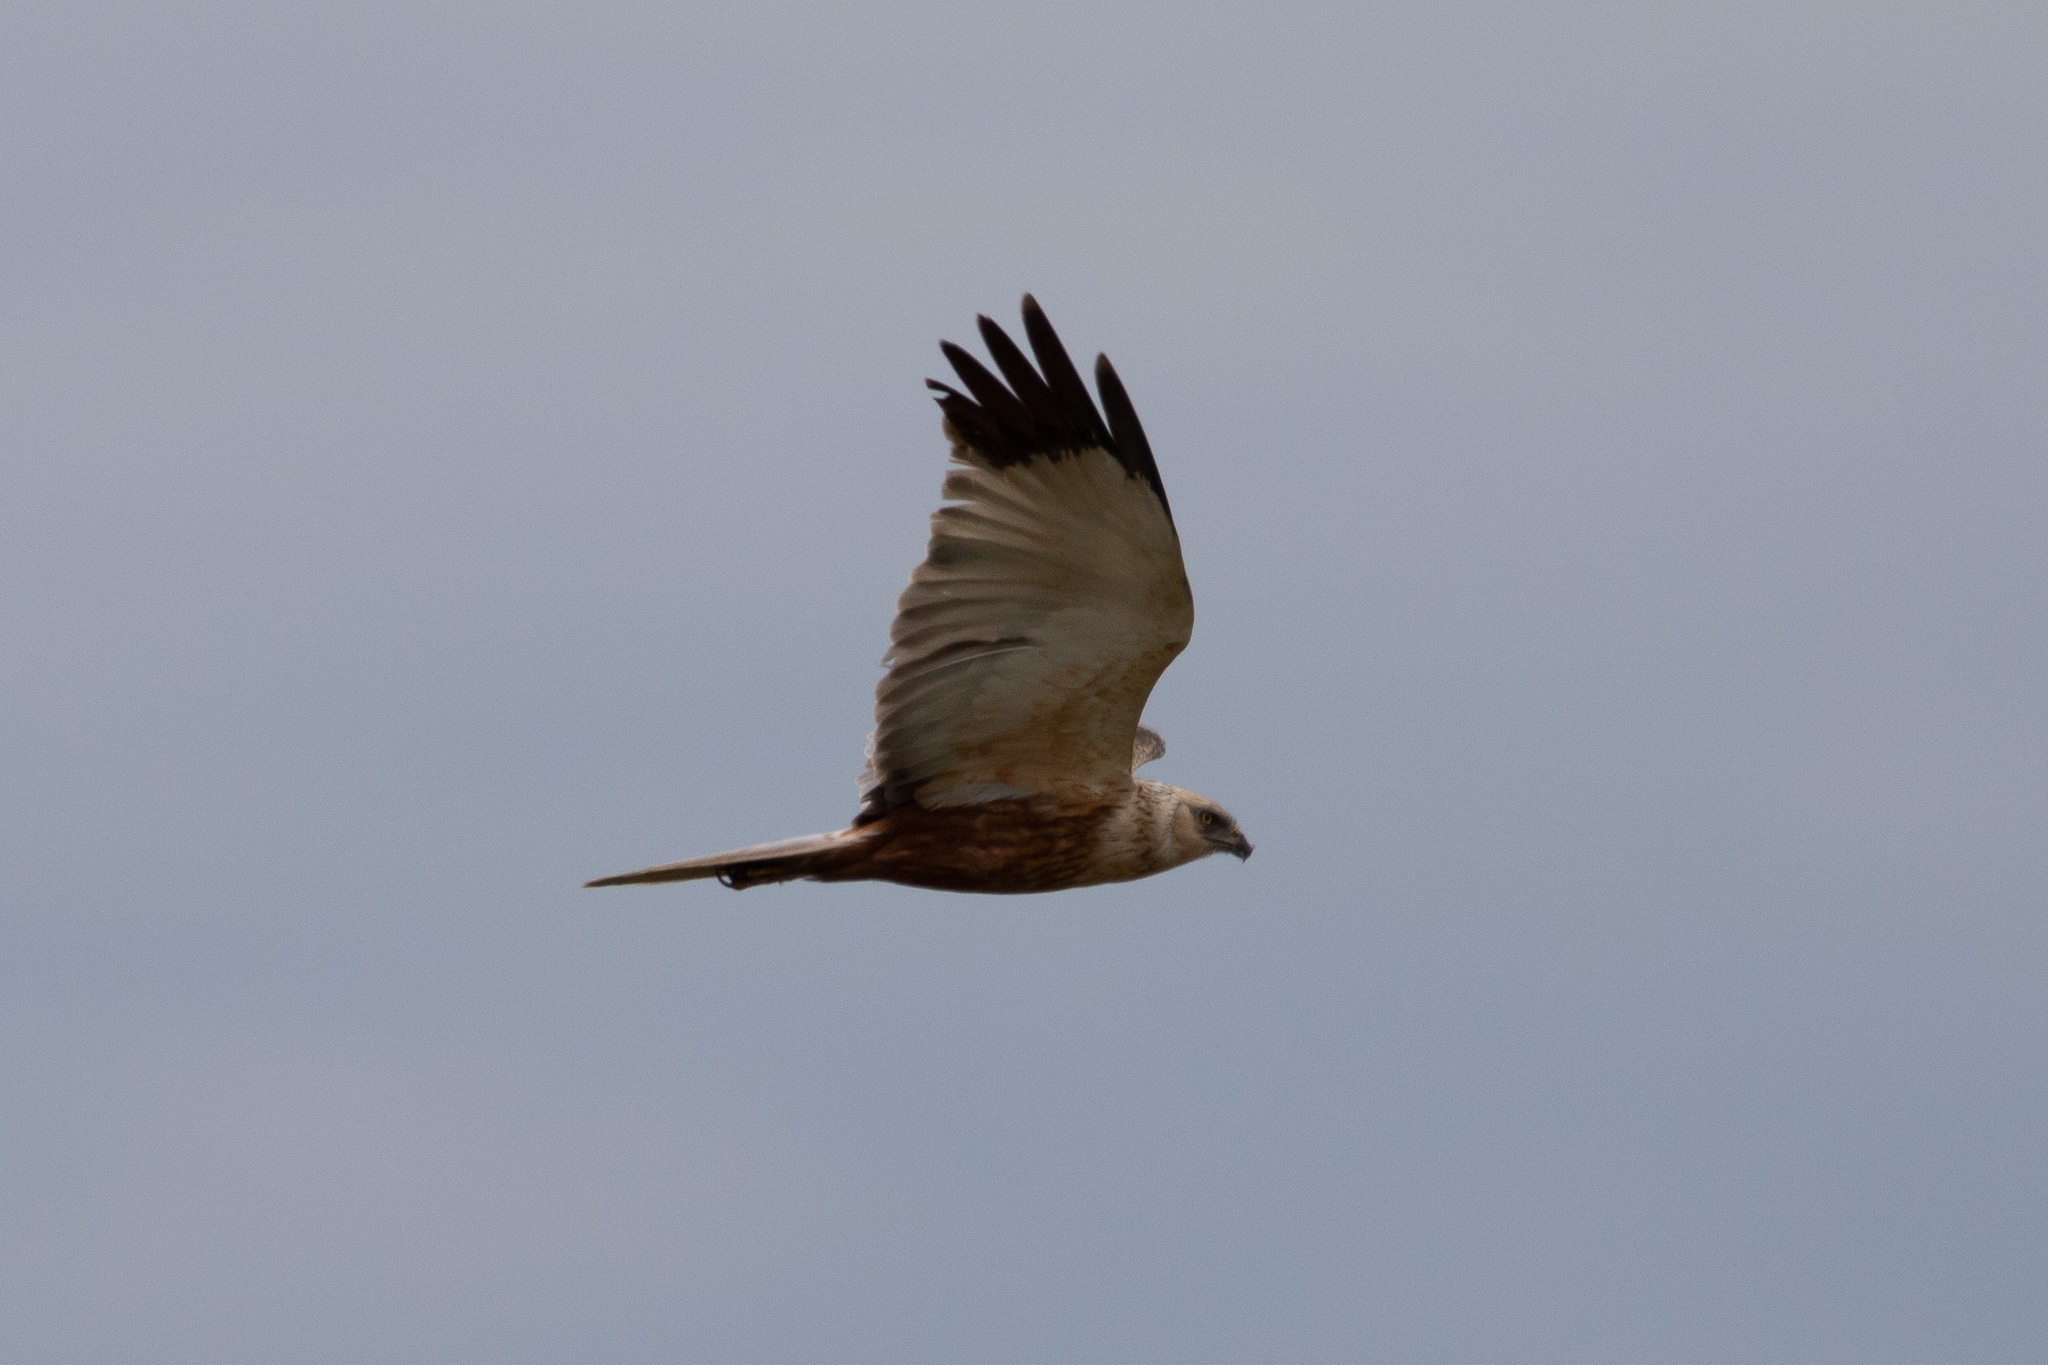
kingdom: Animalia
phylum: Chordata
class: Aves
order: Accipitriformes
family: Accipitridae
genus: Circus
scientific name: Circus aeruginosus
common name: Western marsh harrier
